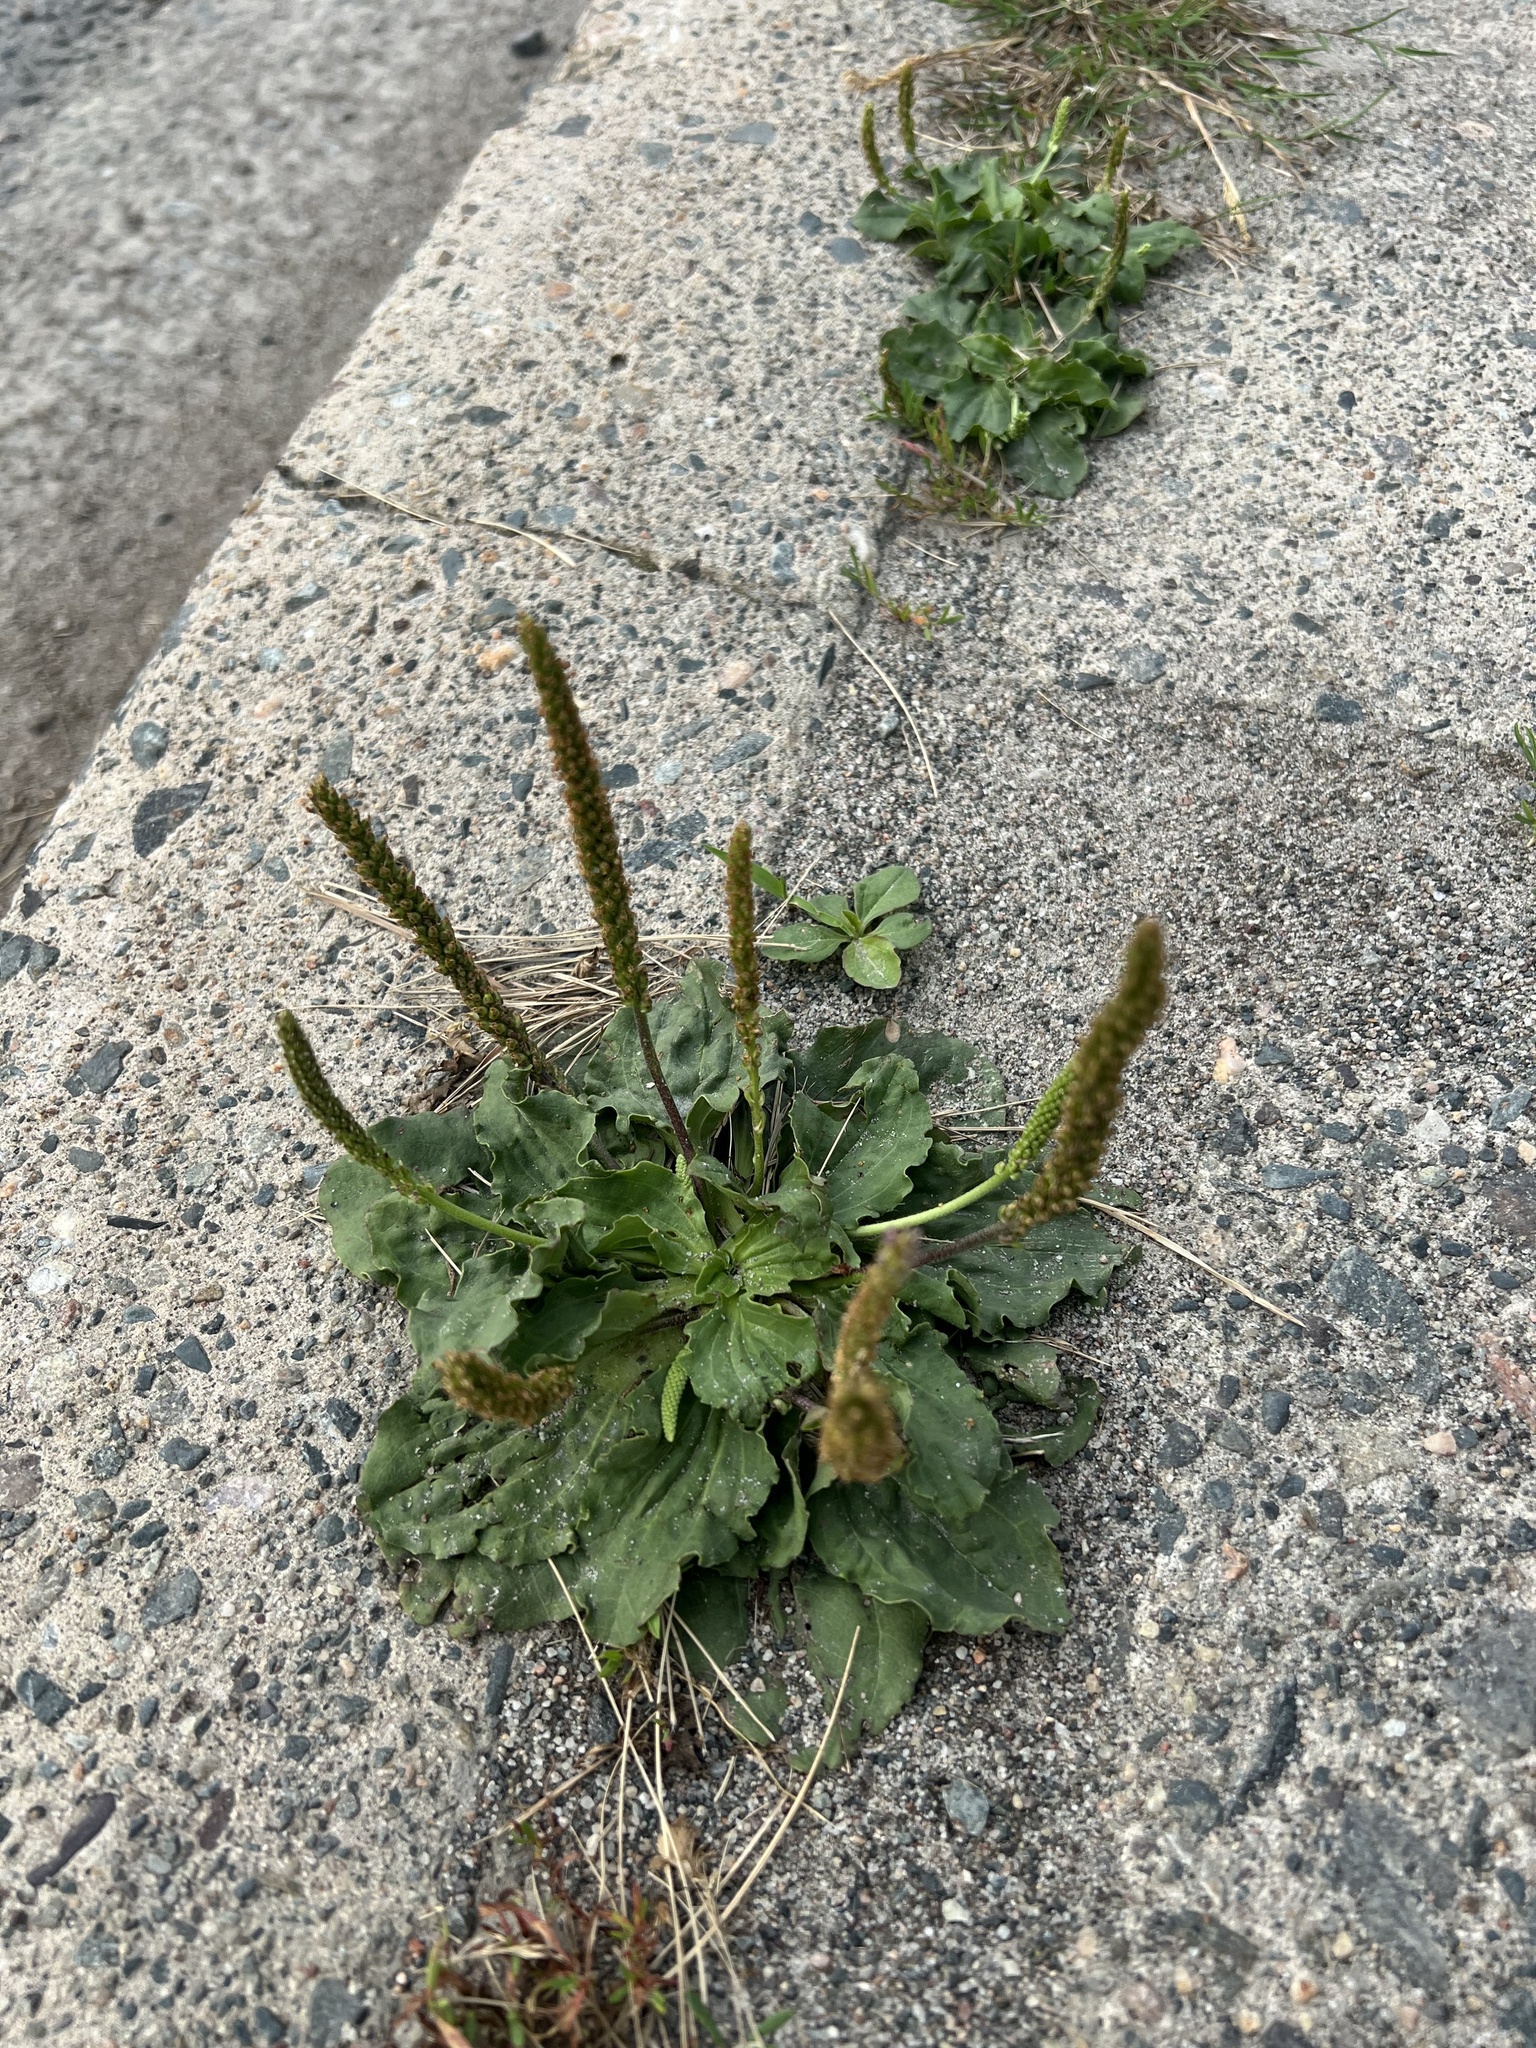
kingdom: Plantae
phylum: Tracheophyta
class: Magnoliopsida
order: Lamiales
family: Plantaginaceae
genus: Plantago
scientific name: Plantago major
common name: Common plantain
